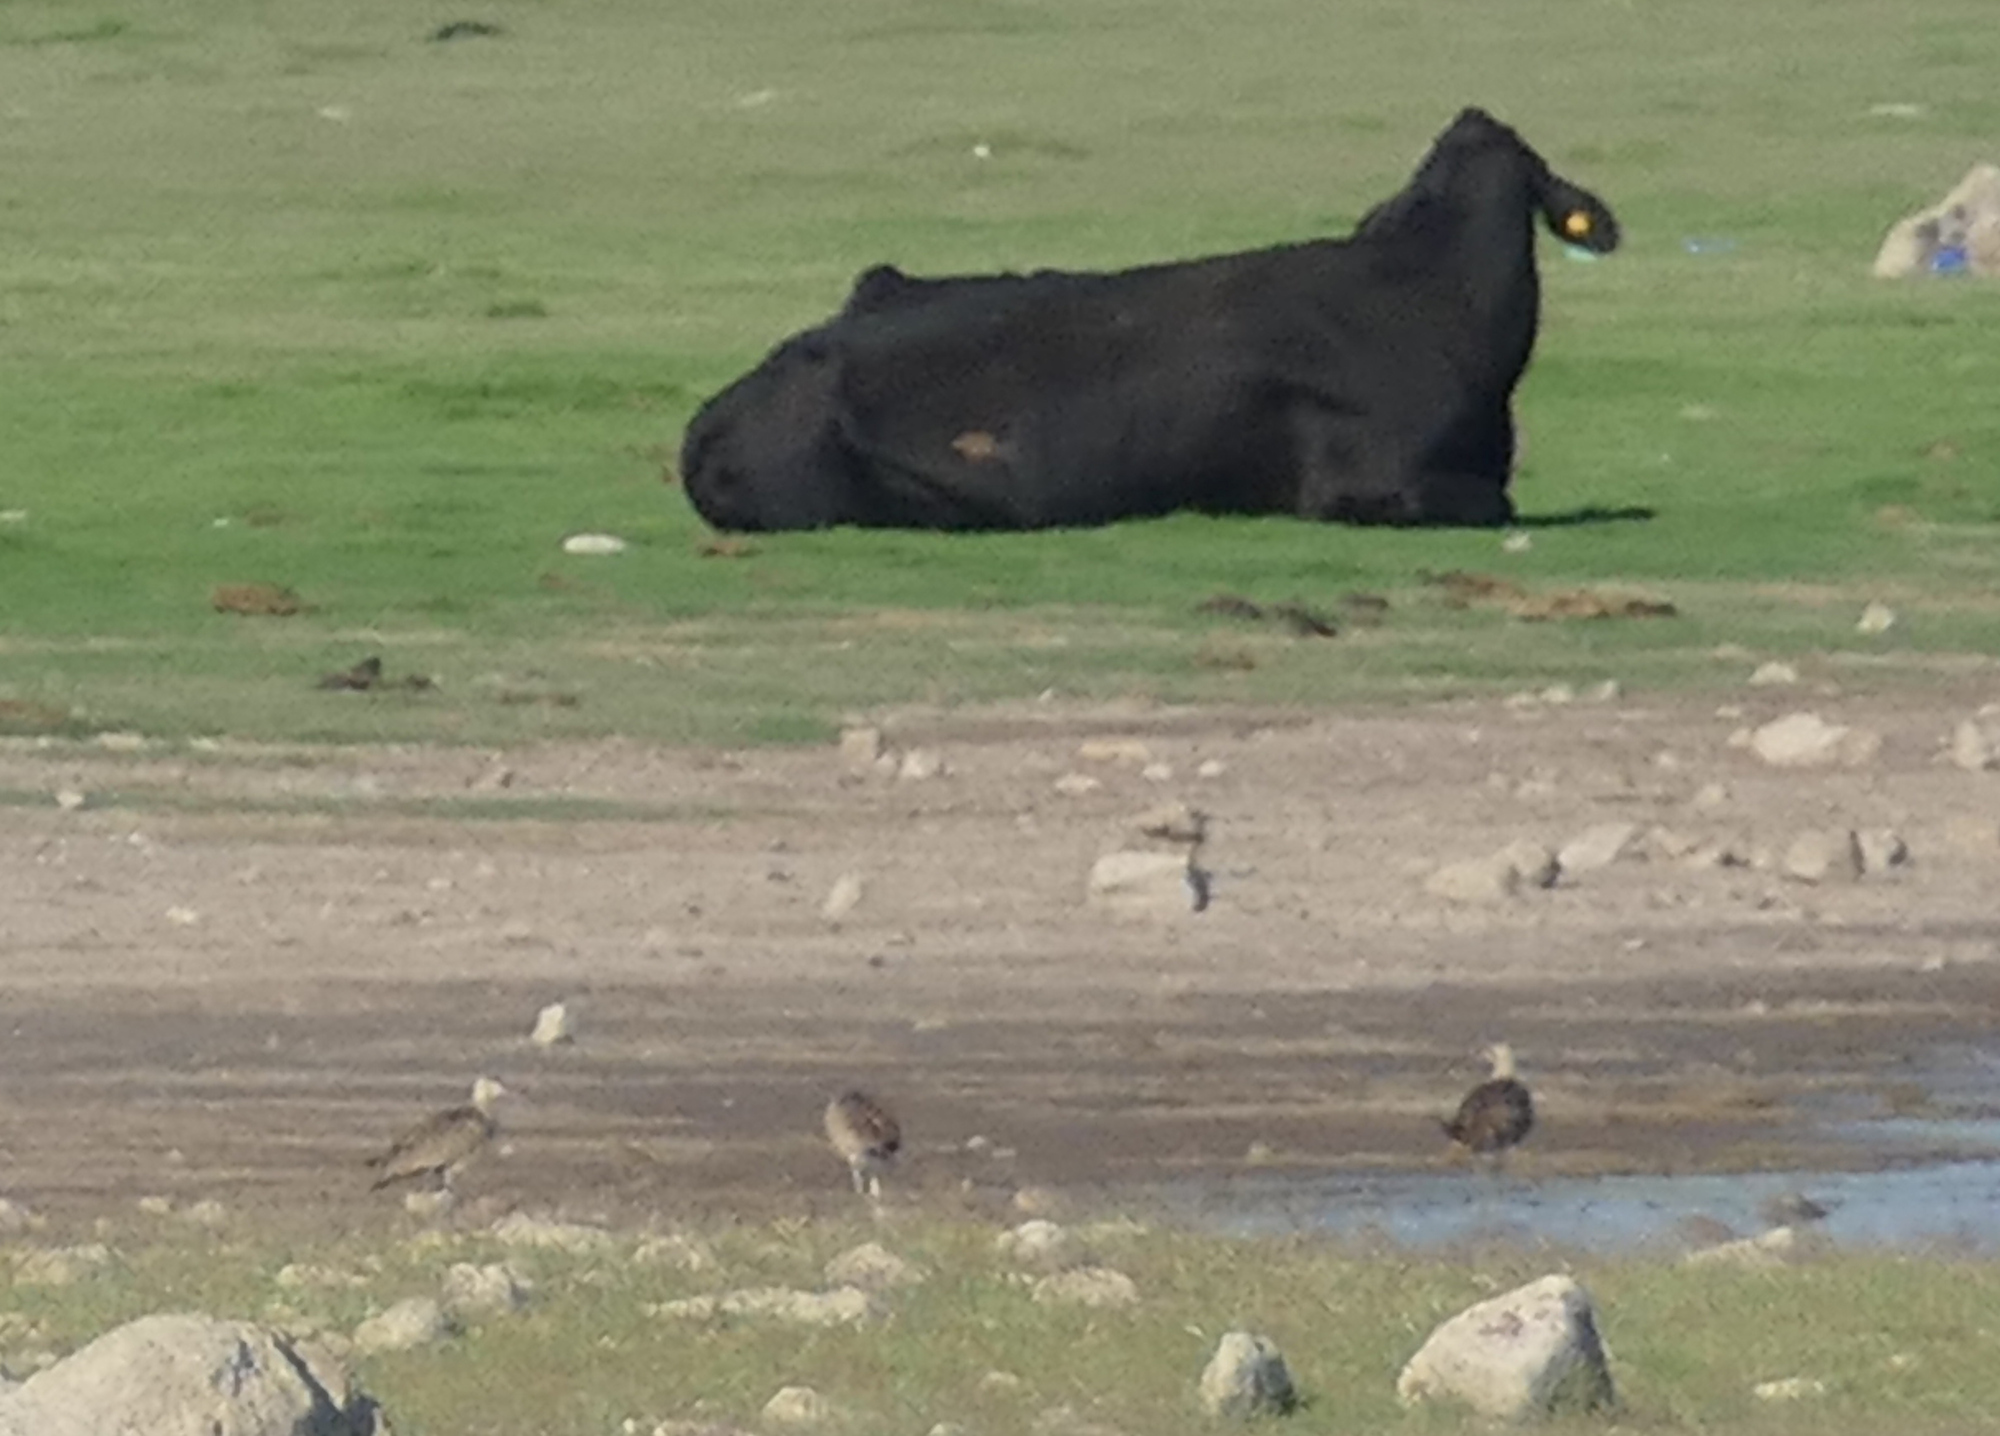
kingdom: Animalia
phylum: Chordata
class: Aves
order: Charadriiformes
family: Scolopacidae
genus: Numenius
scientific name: Numenius americanus
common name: Long-billed curlew
